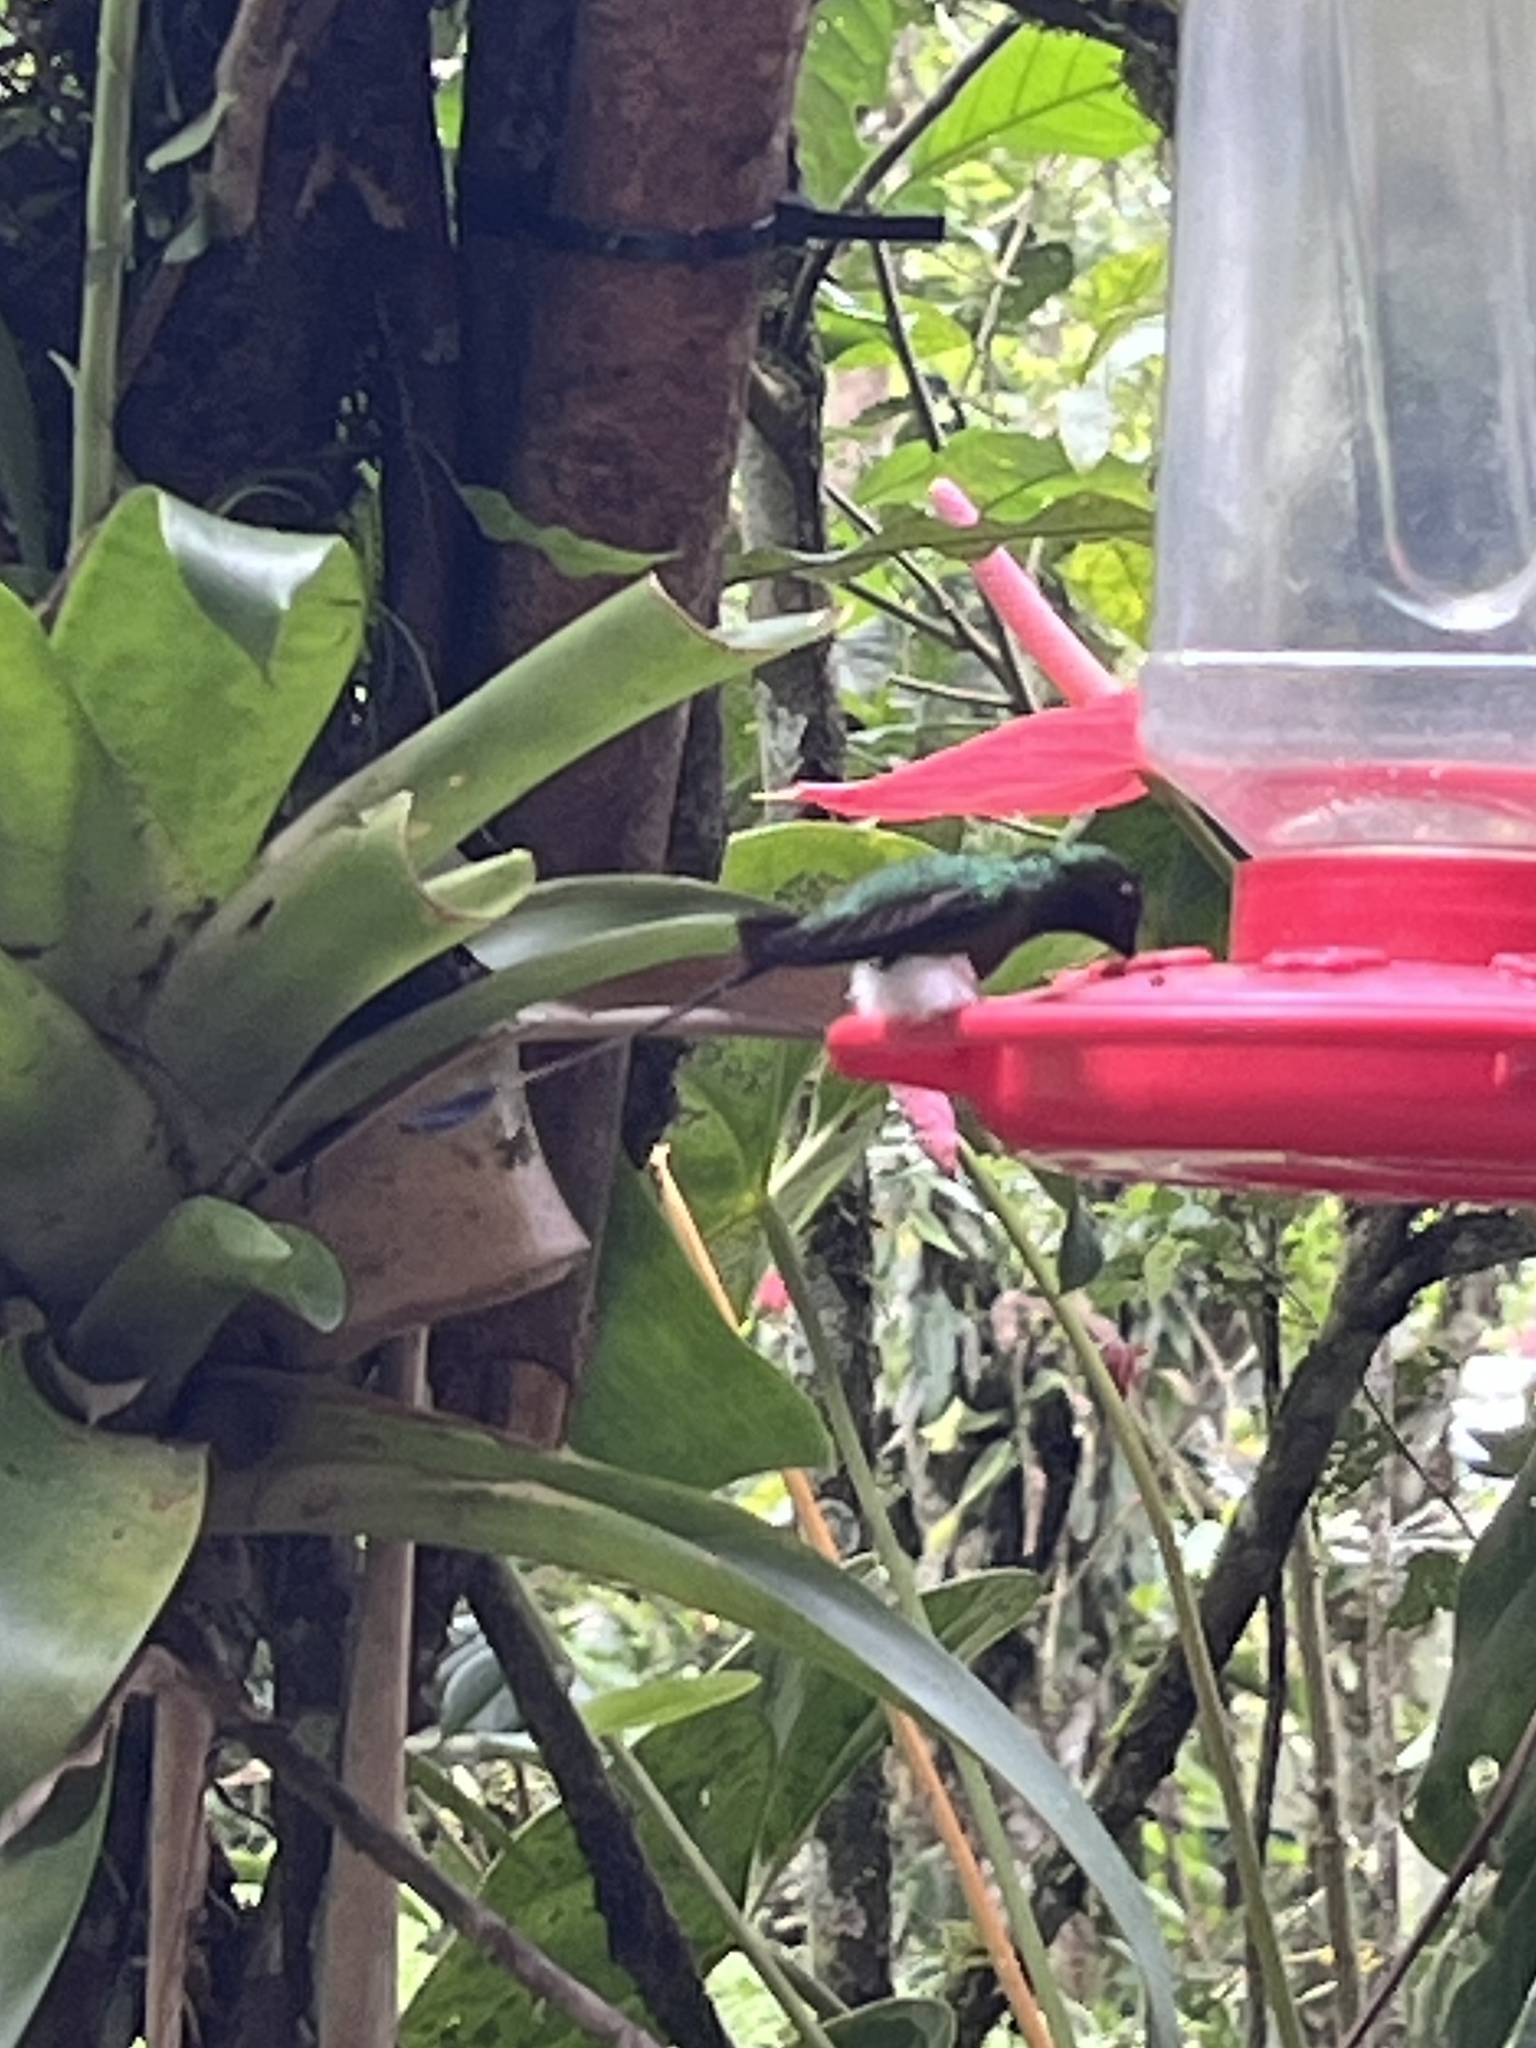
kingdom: Animalia
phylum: Chordata
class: Aves
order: Apodiformes
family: Trochilidae
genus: Ocreatus
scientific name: Ocreatus underwoodii
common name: Booted racket-tail
